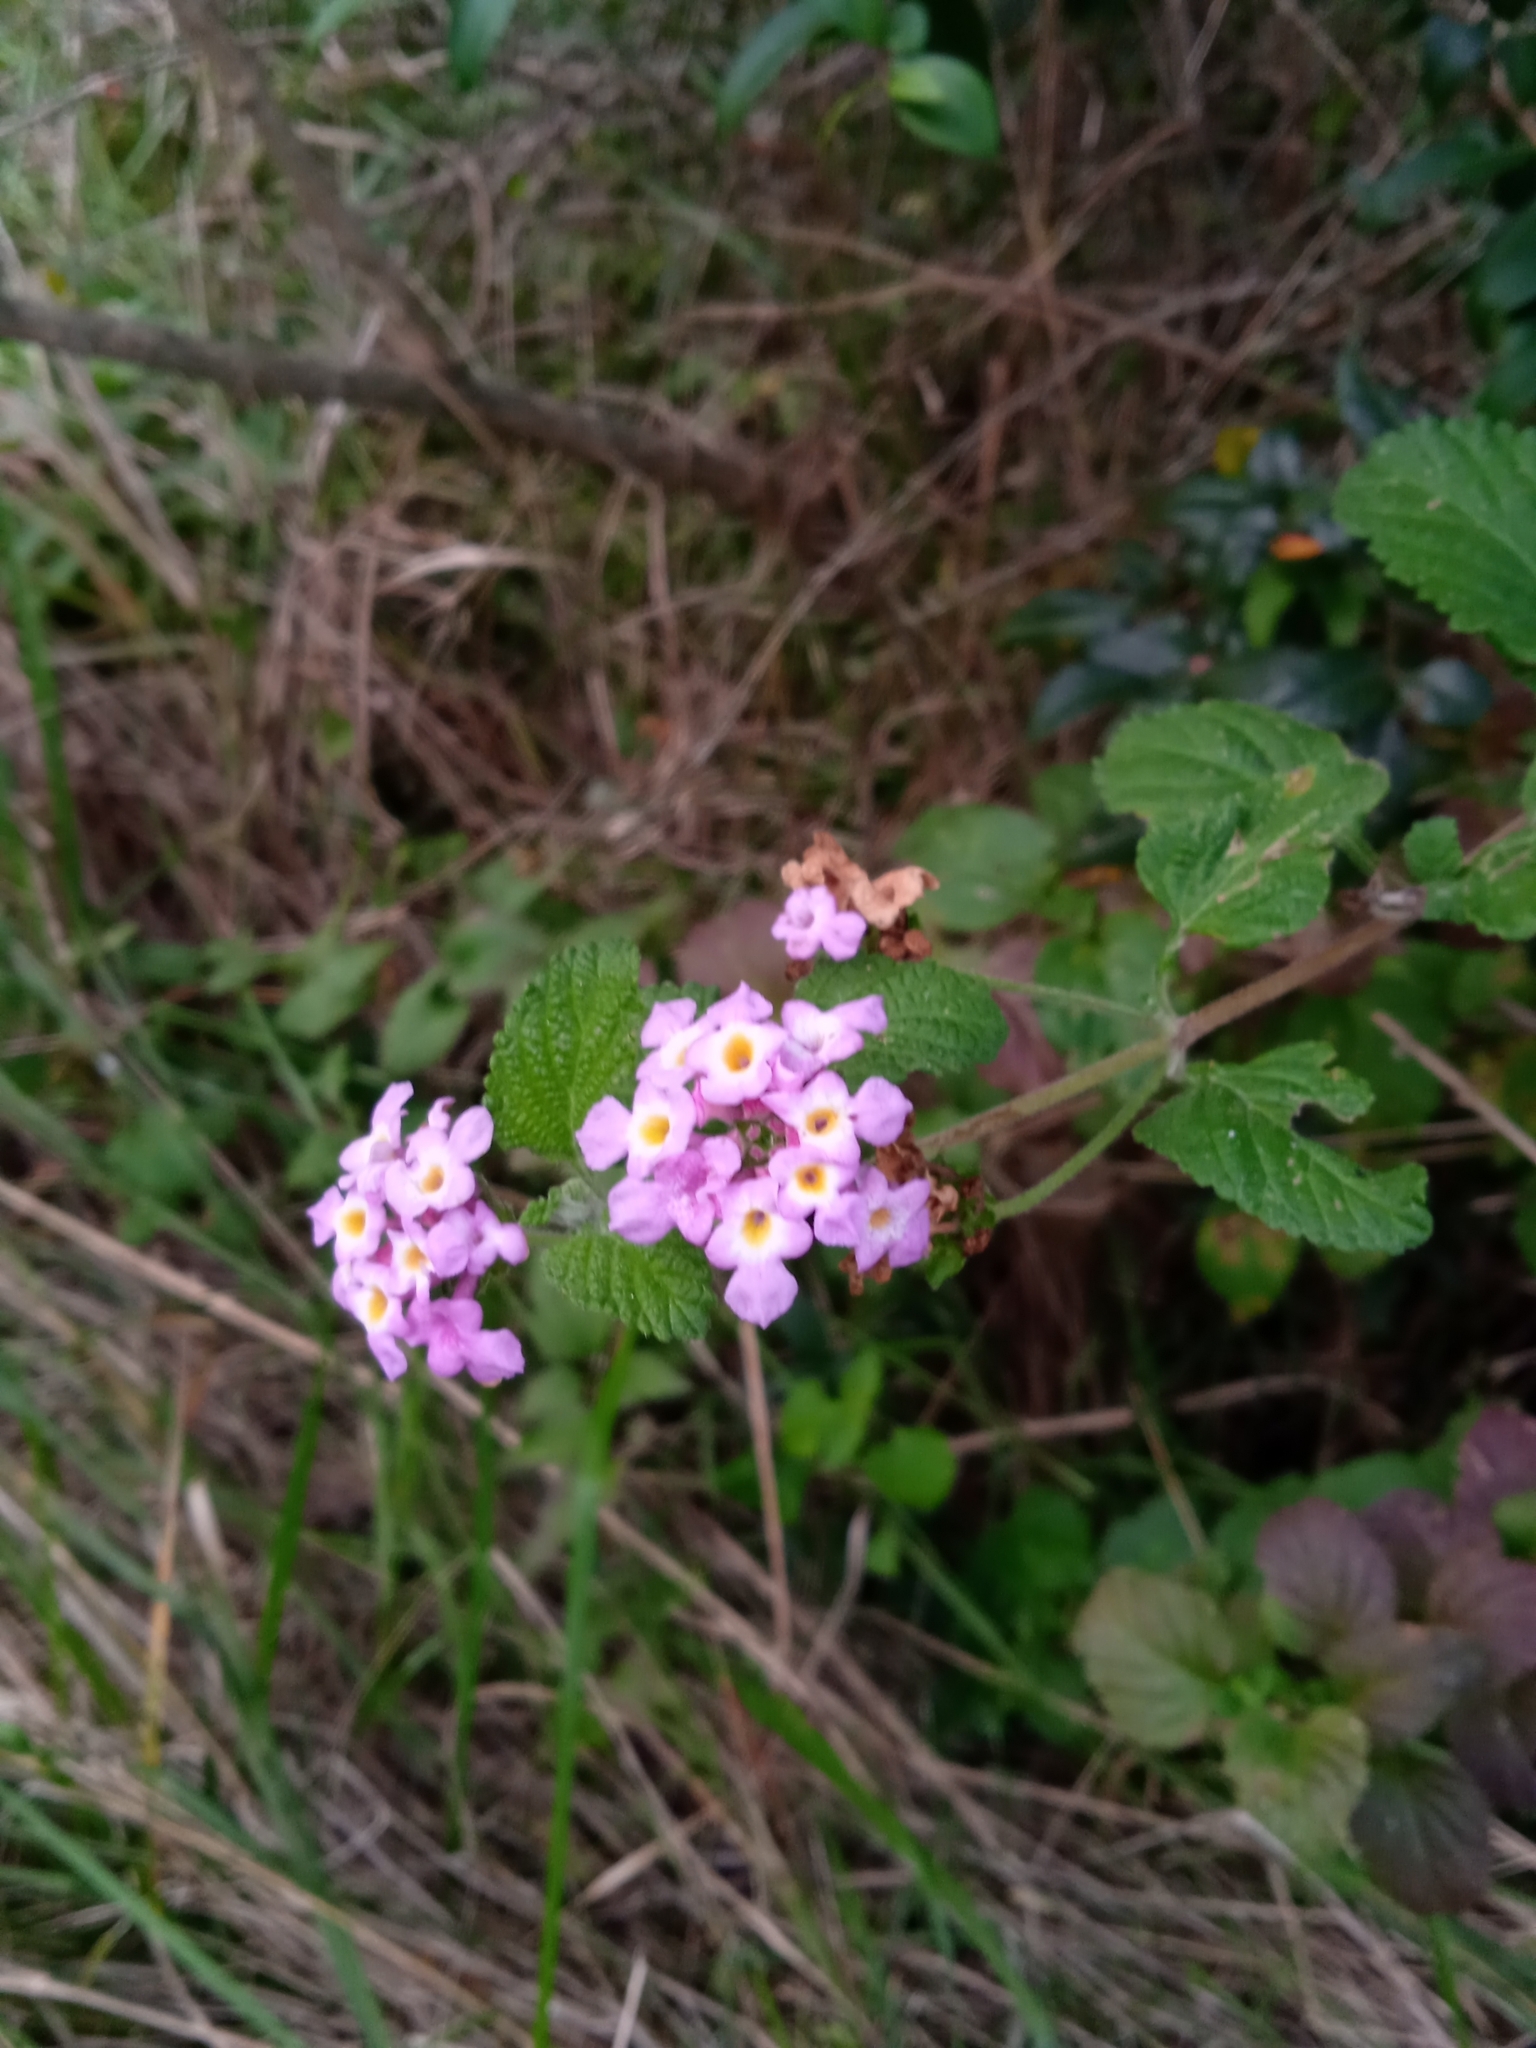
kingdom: Plantae
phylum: Tracheophyta
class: Magnoliopsida
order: Lamiales
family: Verbenaceae
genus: Lantana
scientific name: Lantana montevidensis
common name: Trailing shrubverbena
